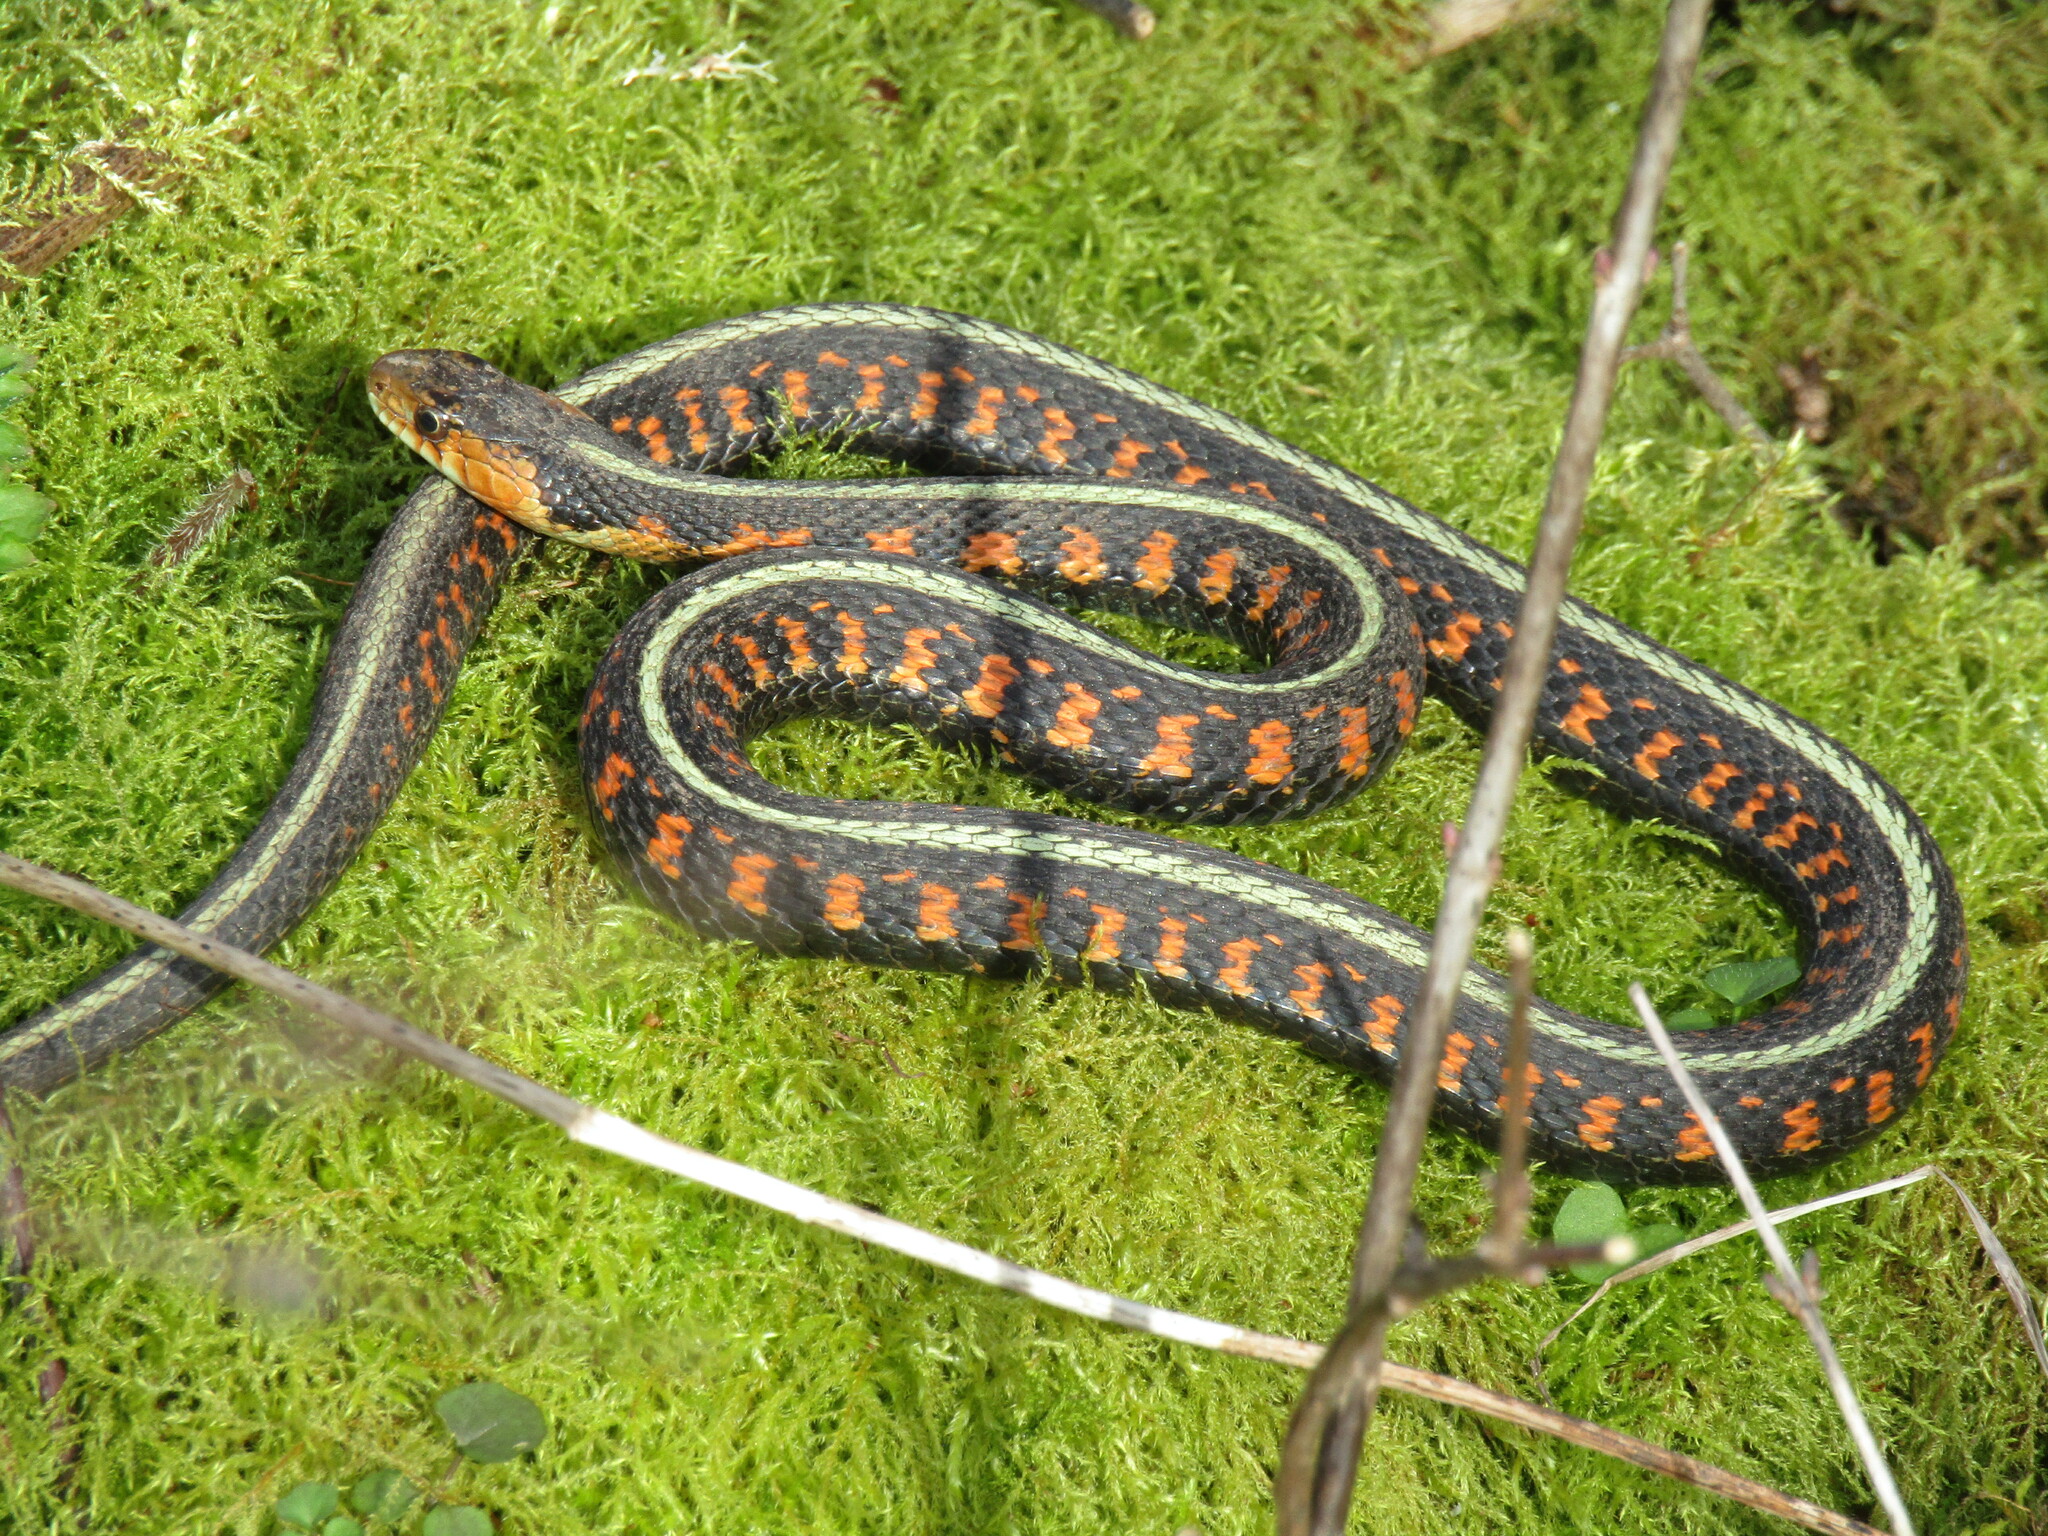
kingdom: Animalia
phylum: Chordata
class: Squamata
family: Colubridae
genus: Thamnophis
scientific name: Thamnophis sirtalis
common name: Common garter snake
